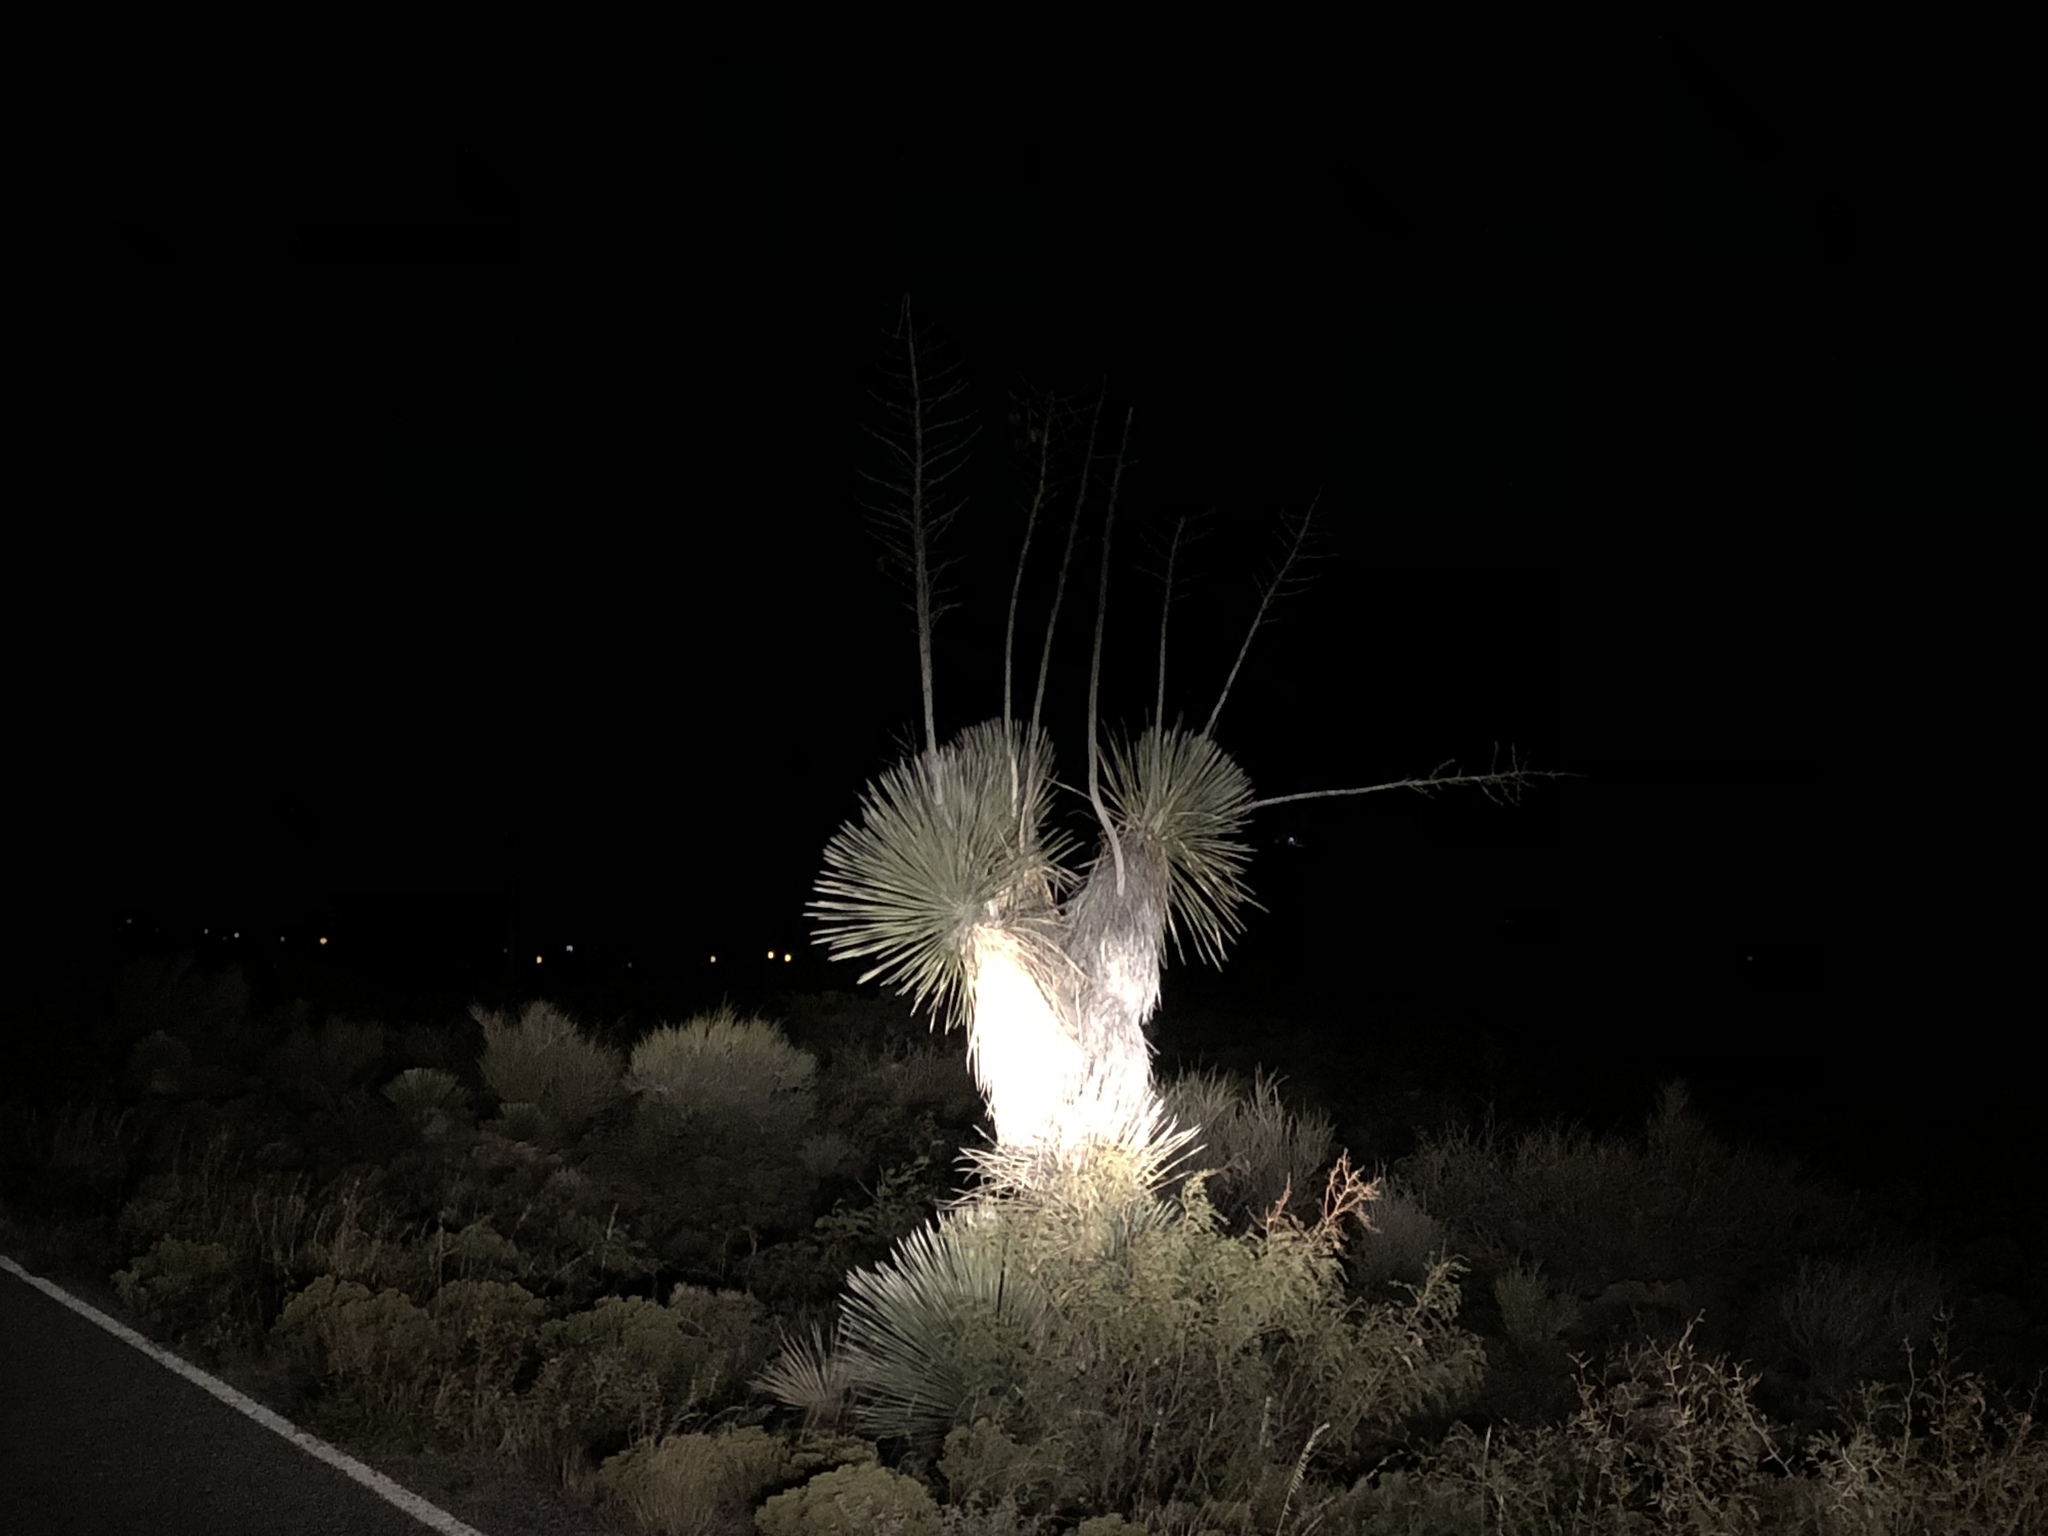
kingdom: Plantae
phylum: Tracheophyta
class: Liliopsida
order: Asparagales
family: Asparagaceae
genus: Yucca
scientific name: Yucca elata
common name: Palmella
